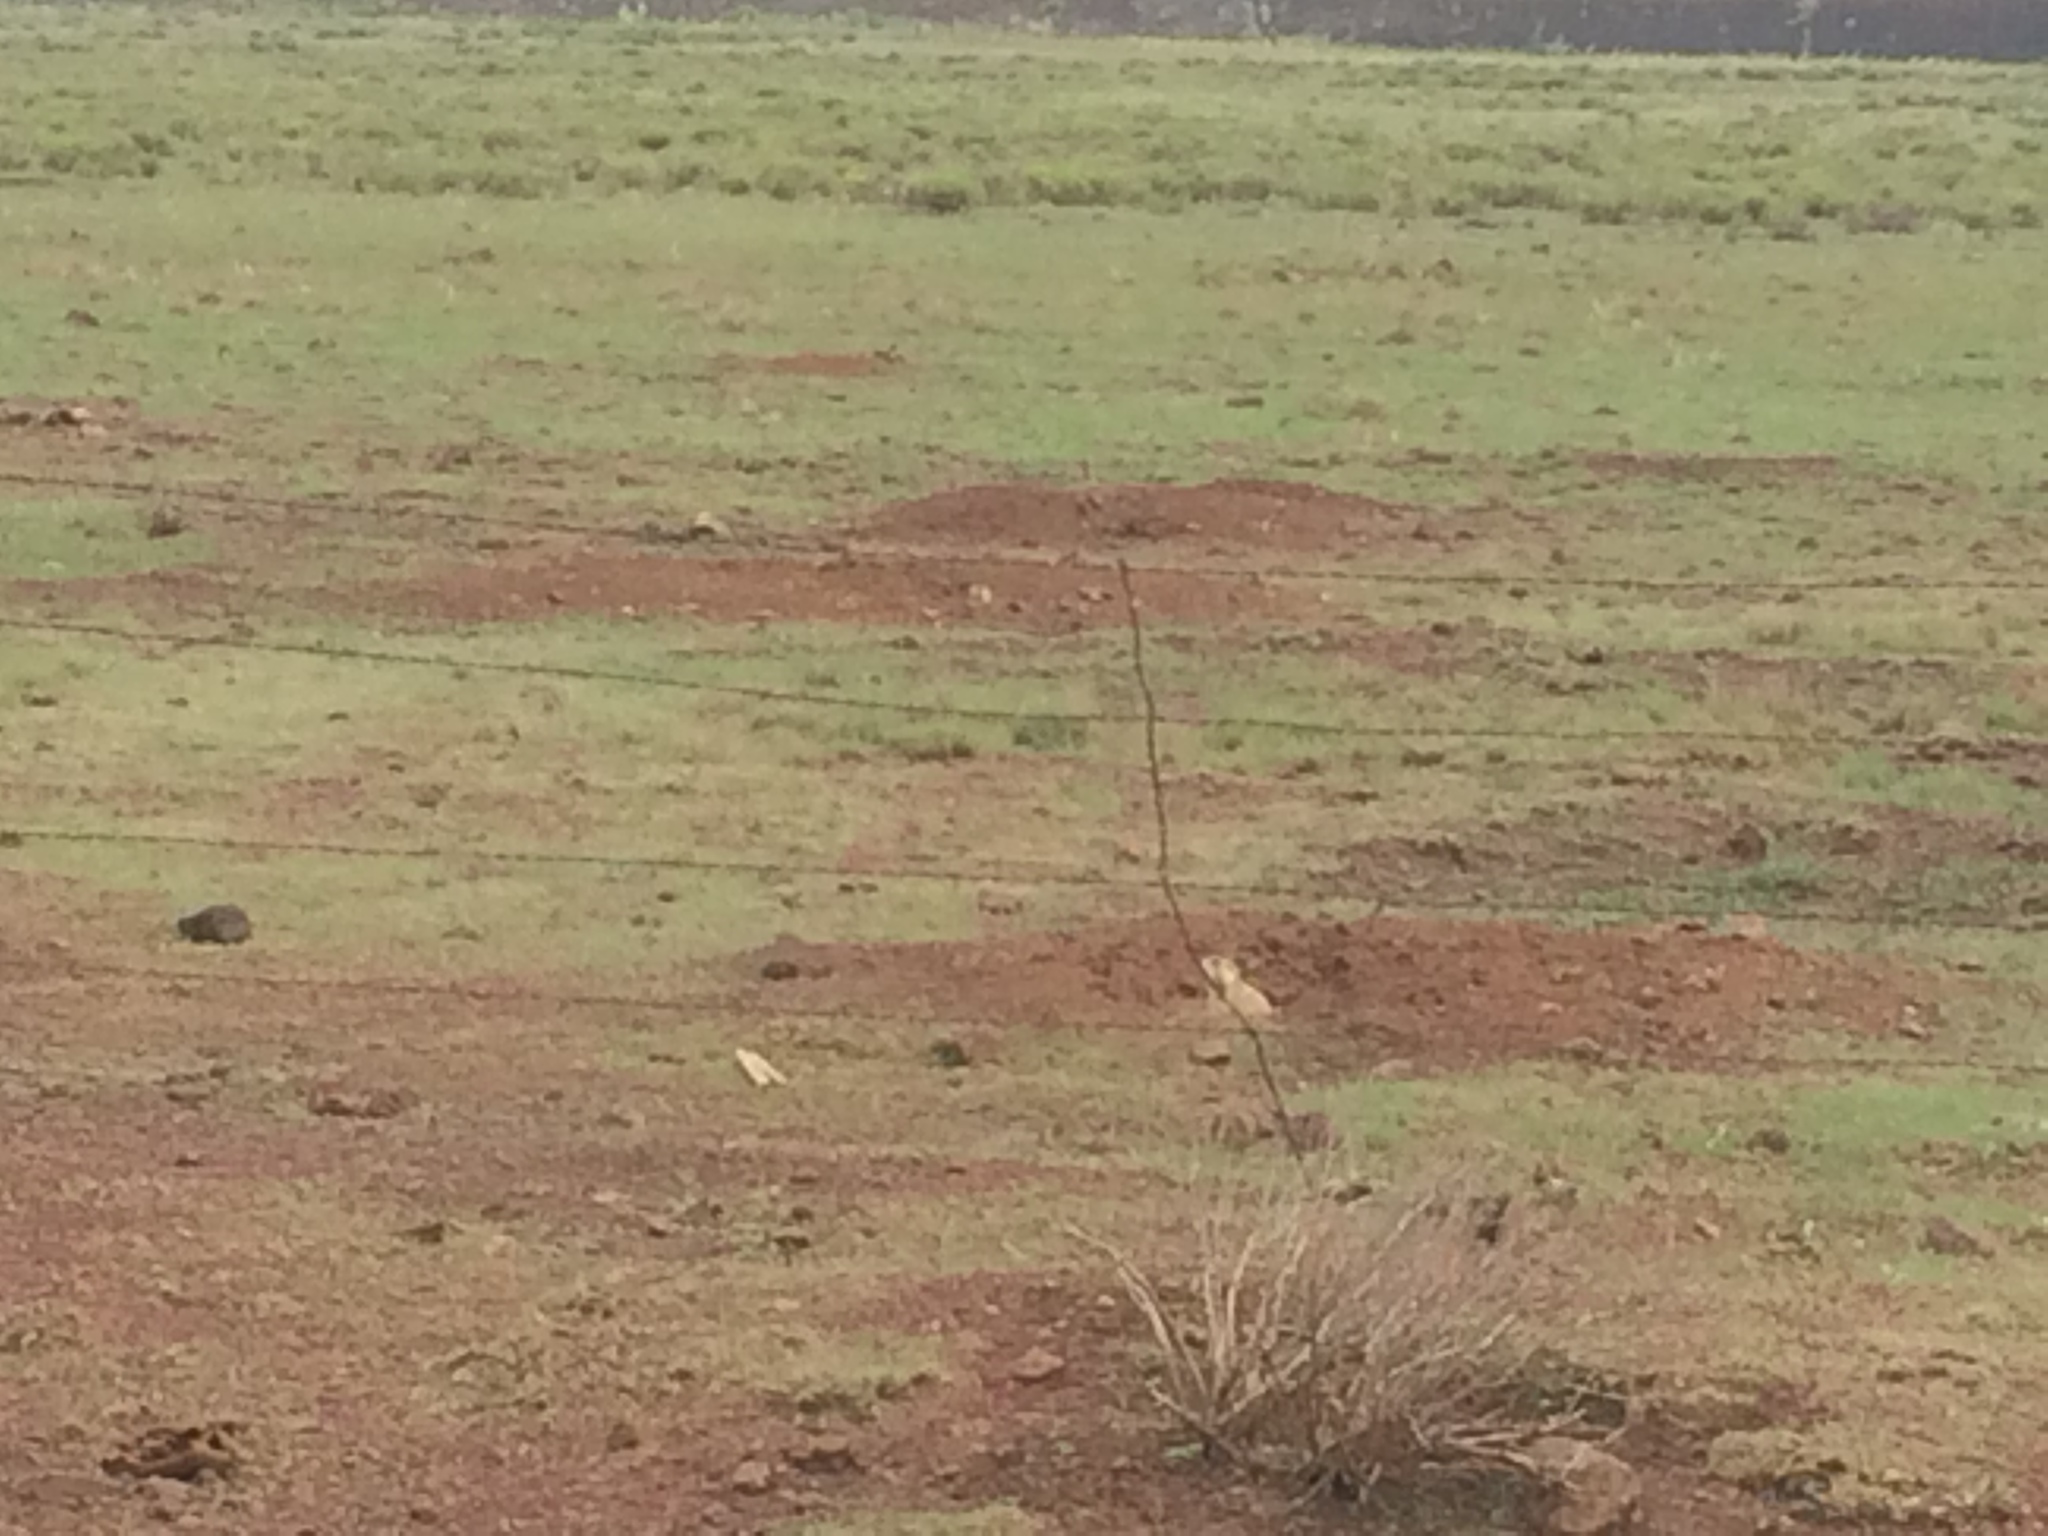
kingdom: Animalia
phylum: Chordata
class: Mammalia
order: Rodentia
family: Sciuridae
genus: Cynomys
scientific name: Cynomys gunnisoni
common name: Gunnison's prairie dog
